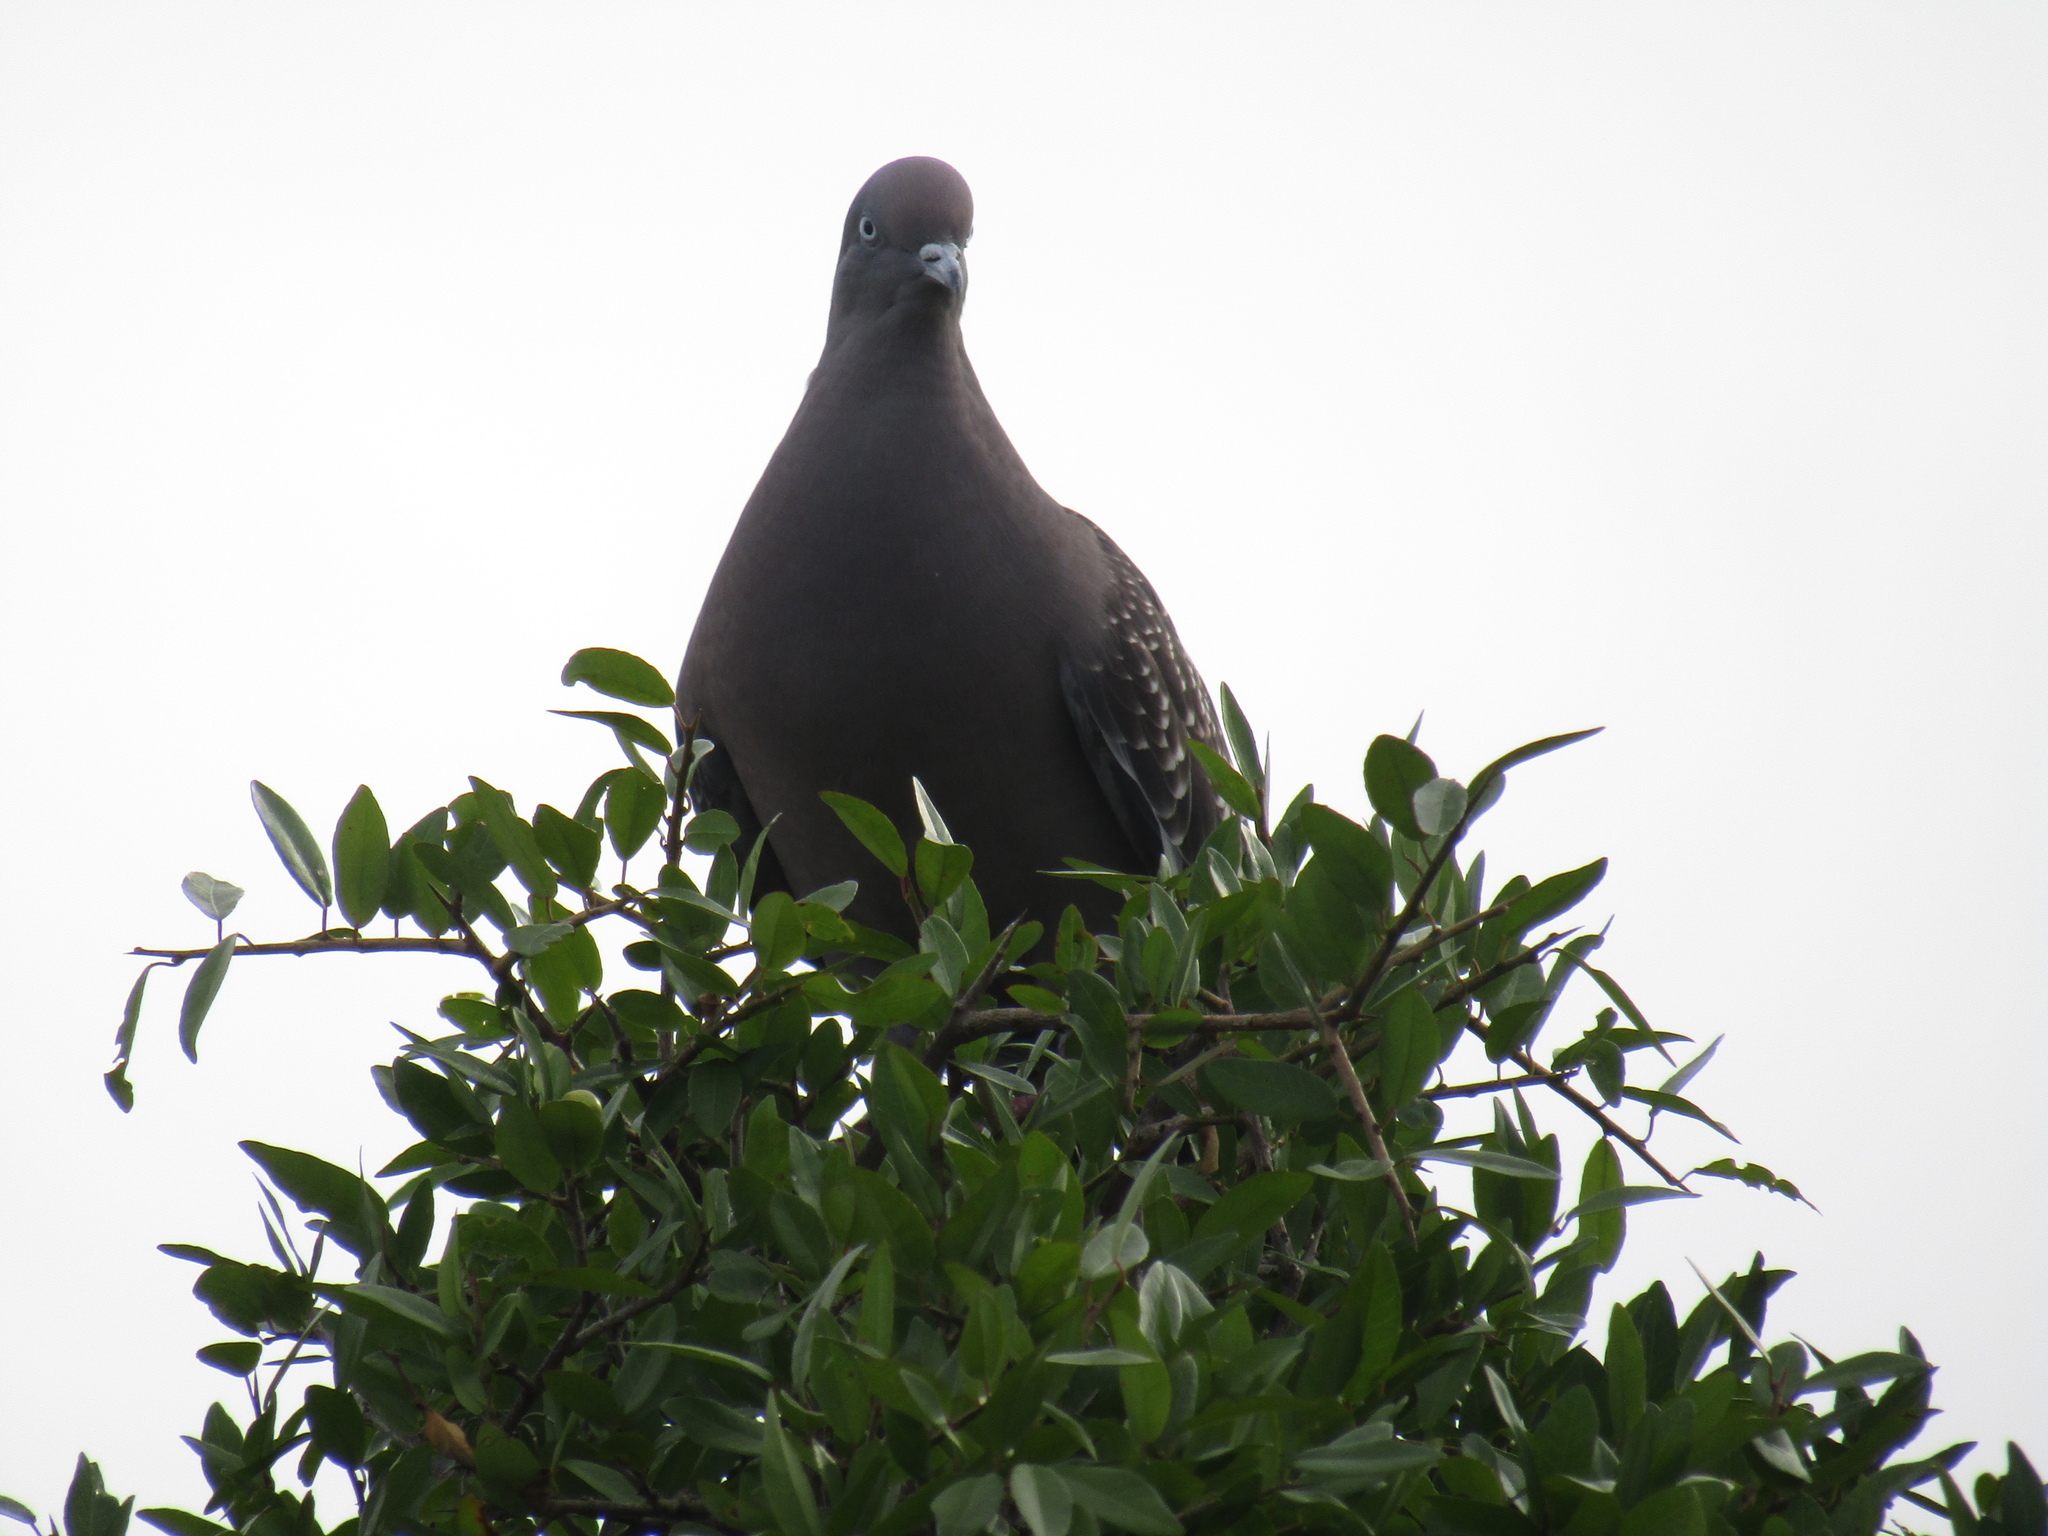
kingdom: Animalia
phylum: Chordata
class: Aves
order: Columbiformes
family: Columbidae
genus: Patagioenas
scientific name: Patagioenas maculosa
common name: Spot-winged pigeon
